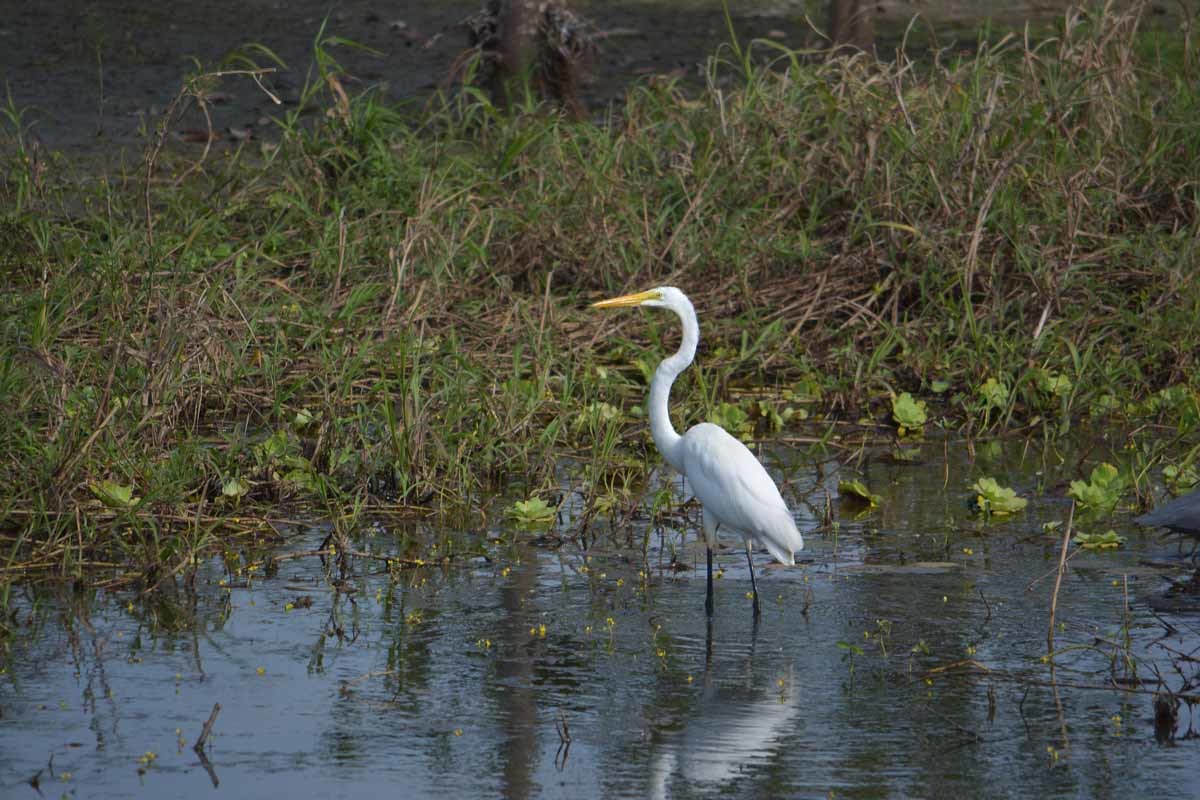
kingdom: Animalia
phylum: Chordata
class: Aves
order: Pelecaniformes
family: Ardeidae
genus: Ardea
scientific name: Ardea alba
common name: Great egret
